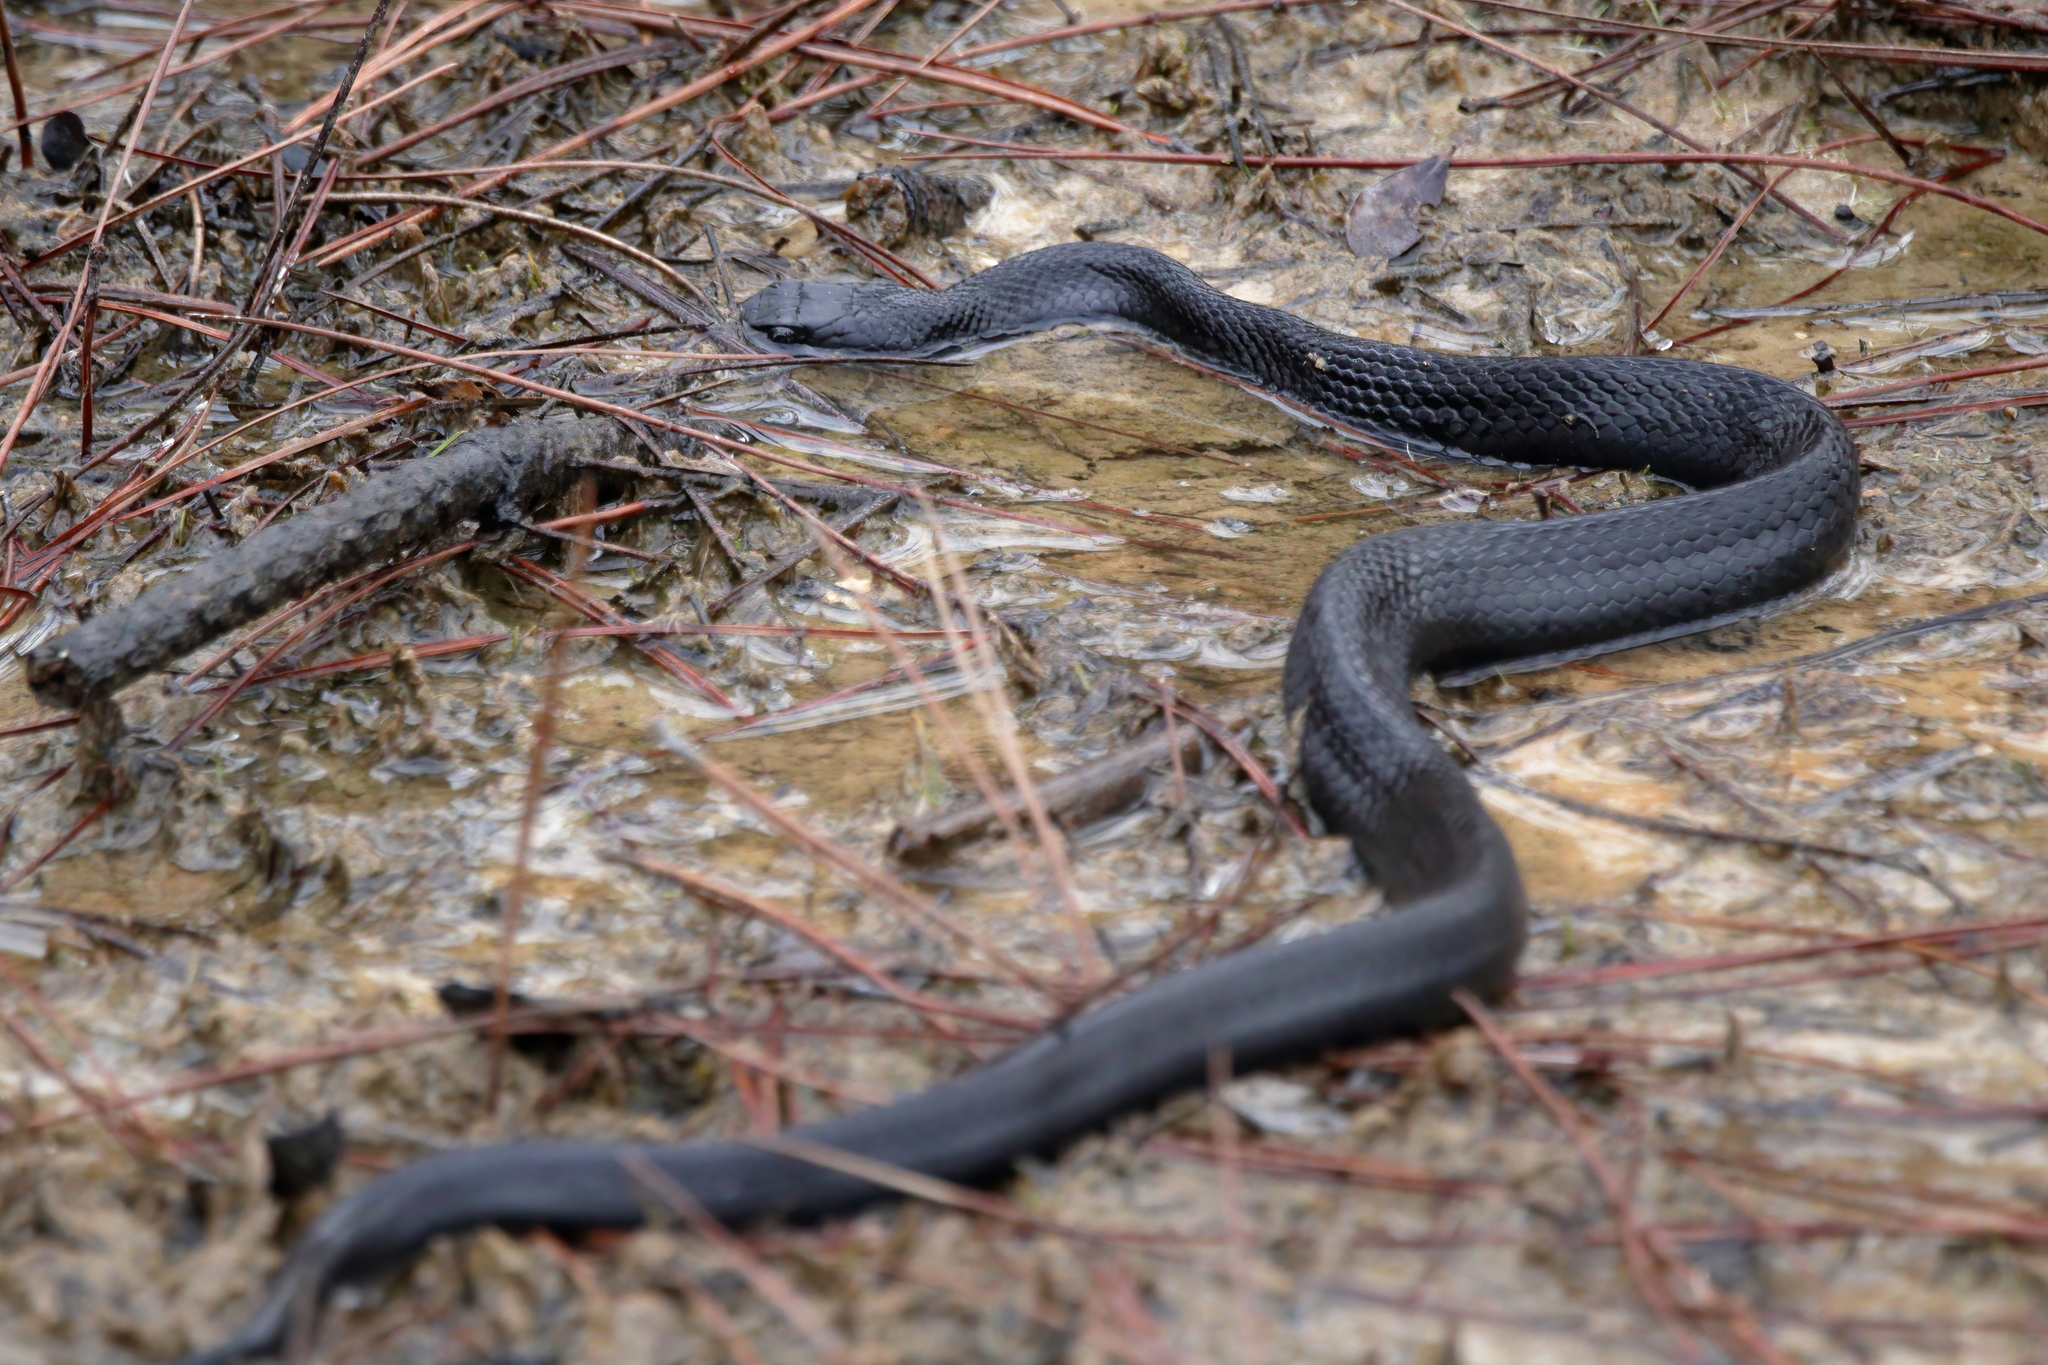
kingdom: Animalia
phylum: Chordata
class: Squamata
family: Colubridae
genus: Coluber
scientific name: Coluber constrictor
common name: Eastern racer
